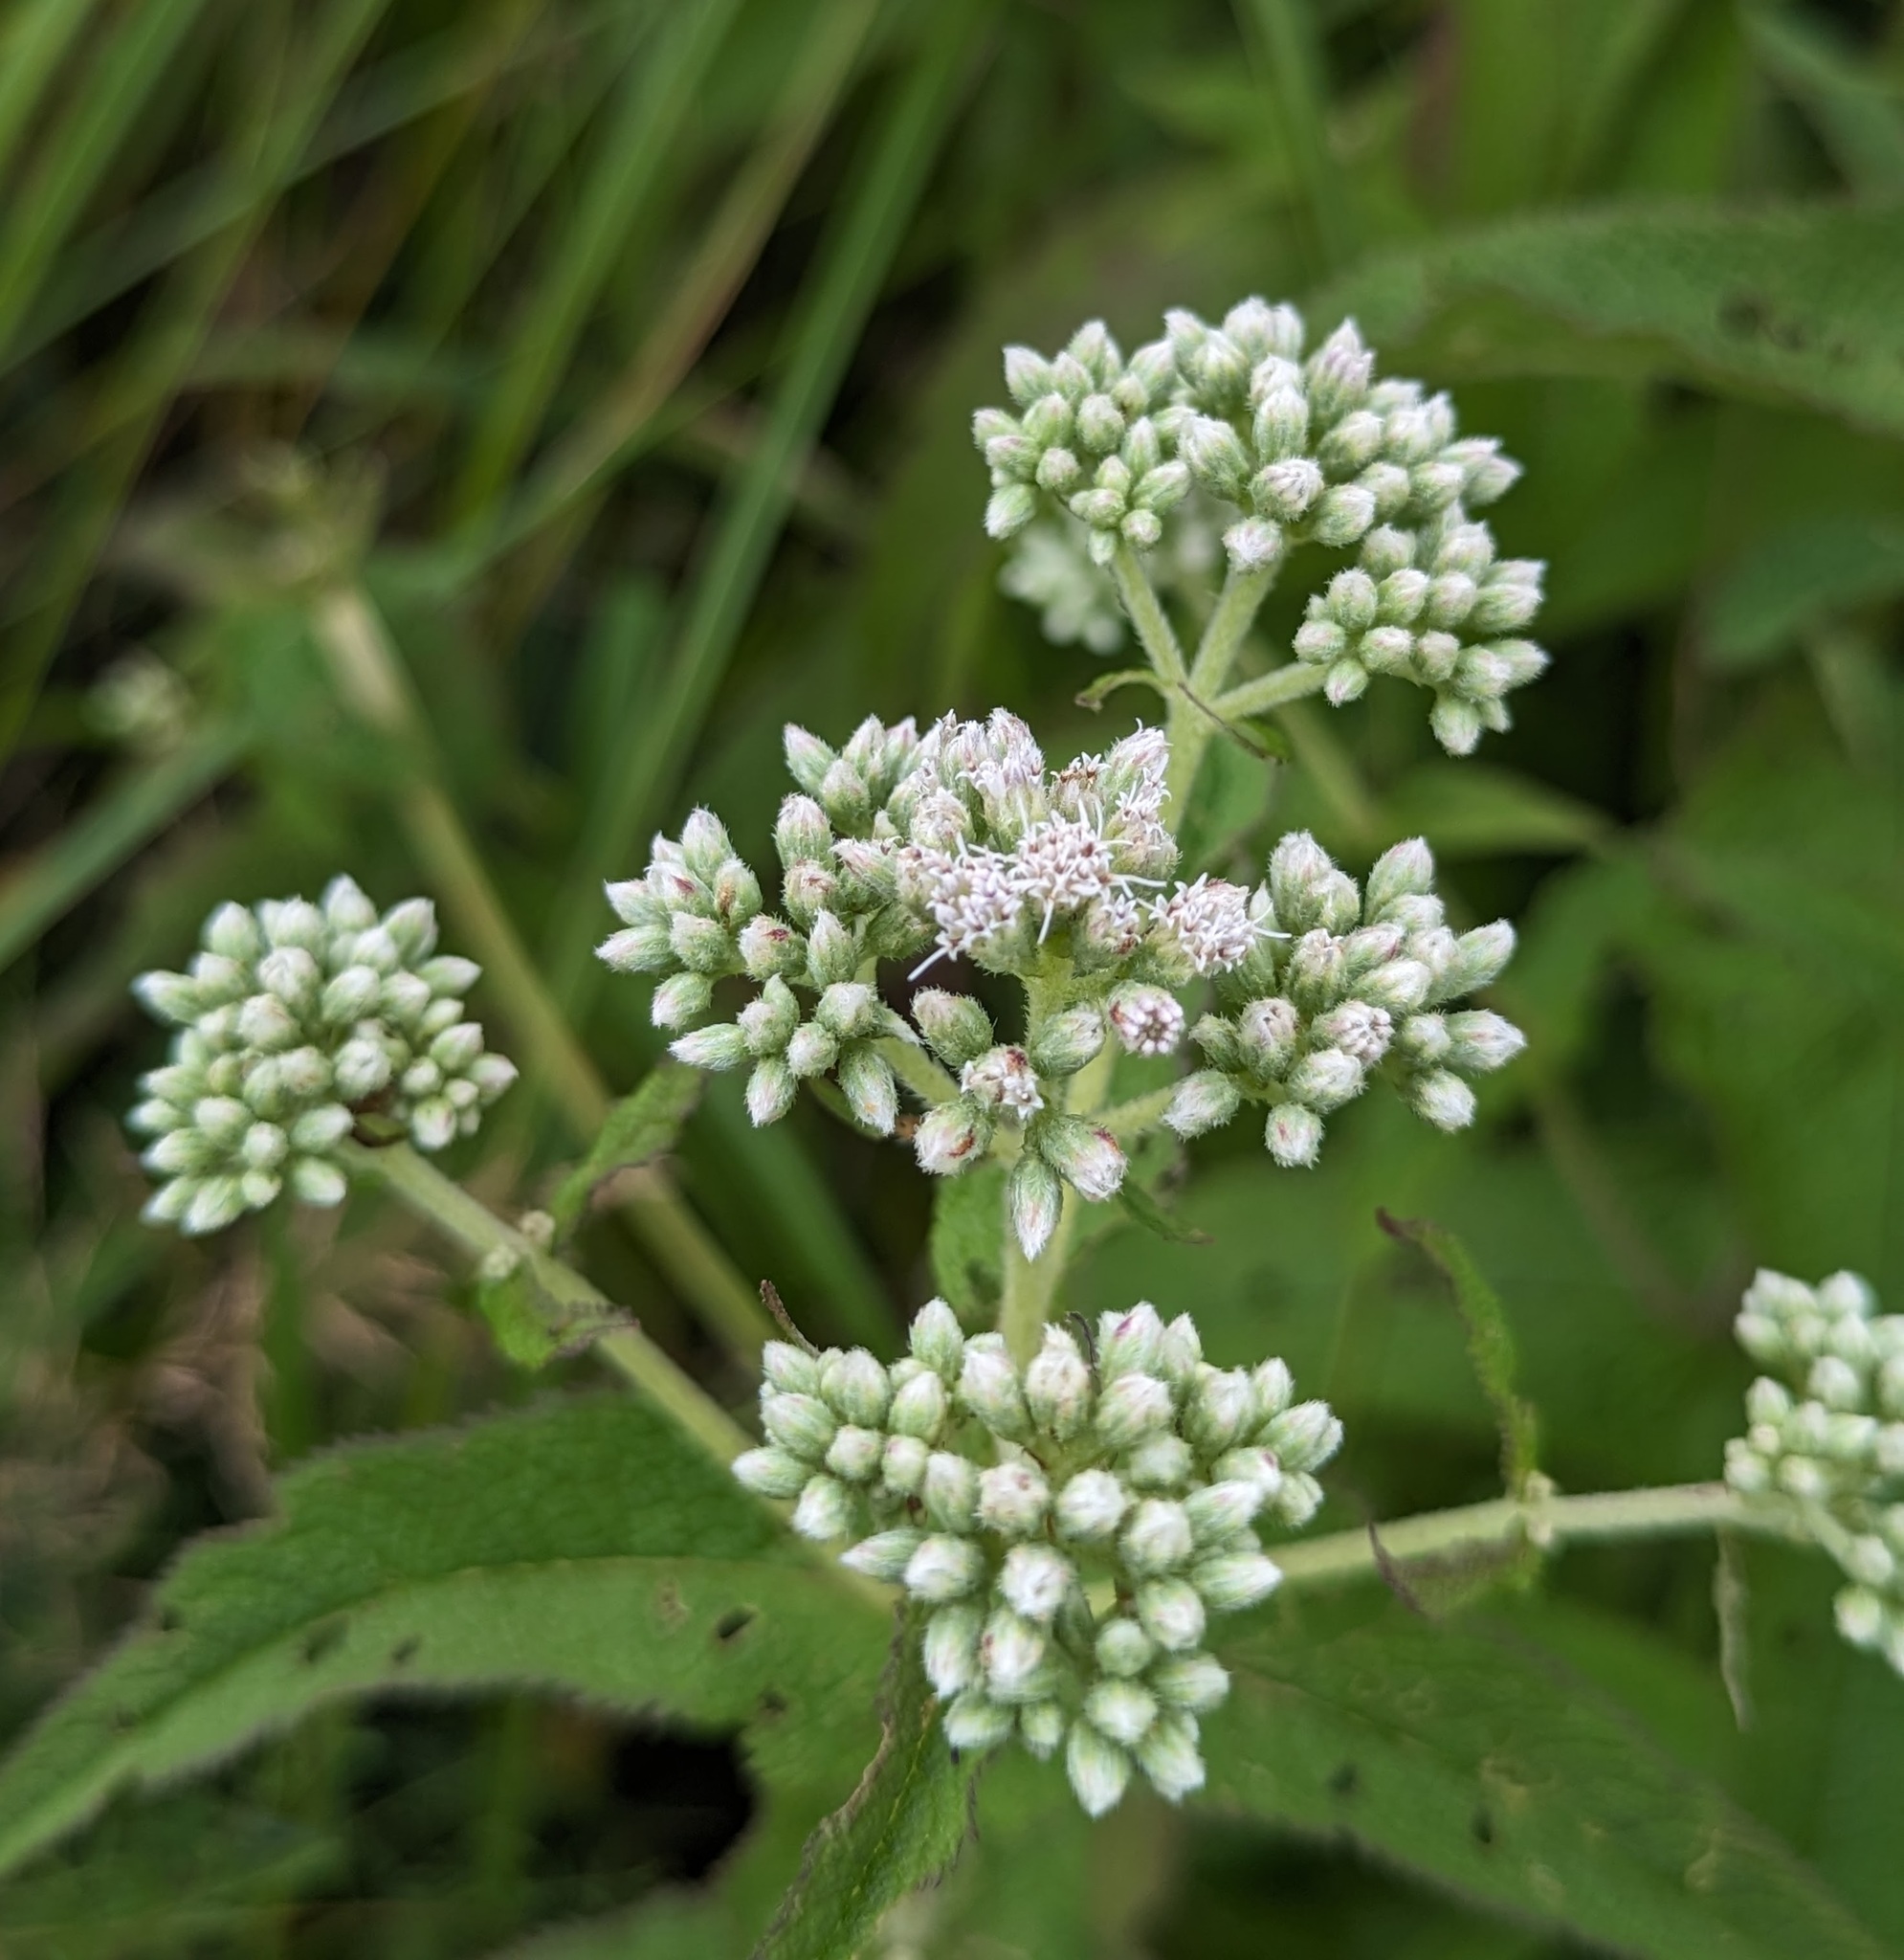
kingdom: Plantae
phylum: Tracheophyta
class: Magnoliopsida
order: Asterales
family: Asteraceae
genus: Eupatorium
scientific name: Eupatorium perfoliatum
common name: Boneset
